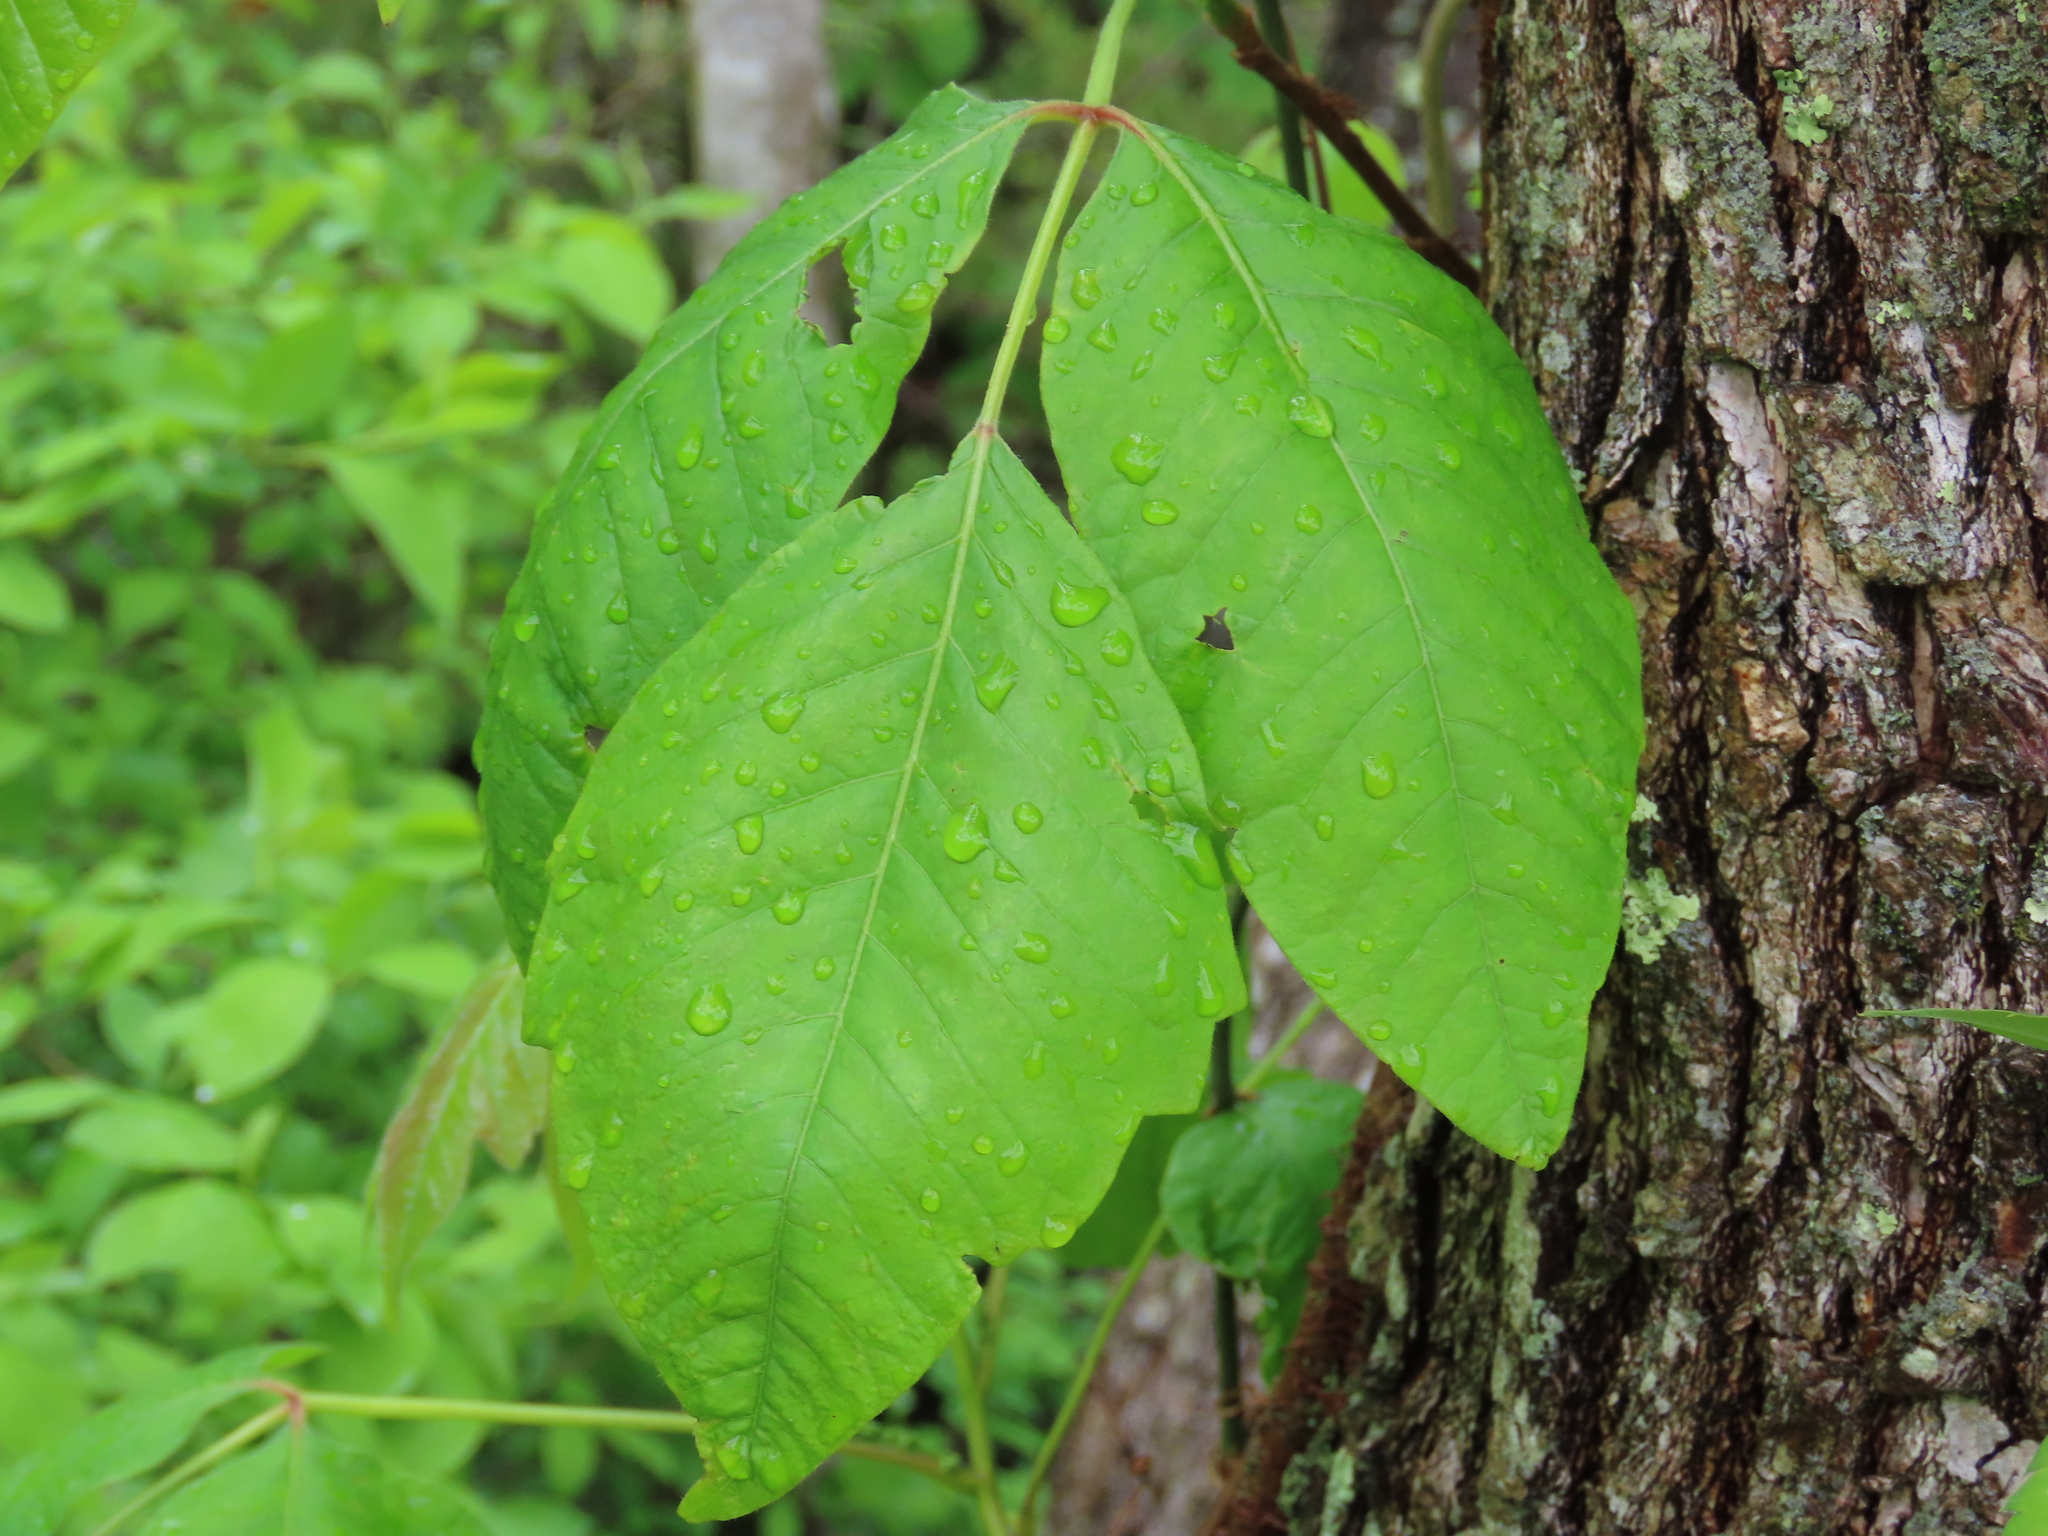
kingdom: Plantae
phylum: Tracheophyta
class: Magnoliopsida
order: Sapindales
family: Anacardiaceae
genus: Toxicodendron
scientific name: Toxicodendron radicans
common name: Poison ivy
